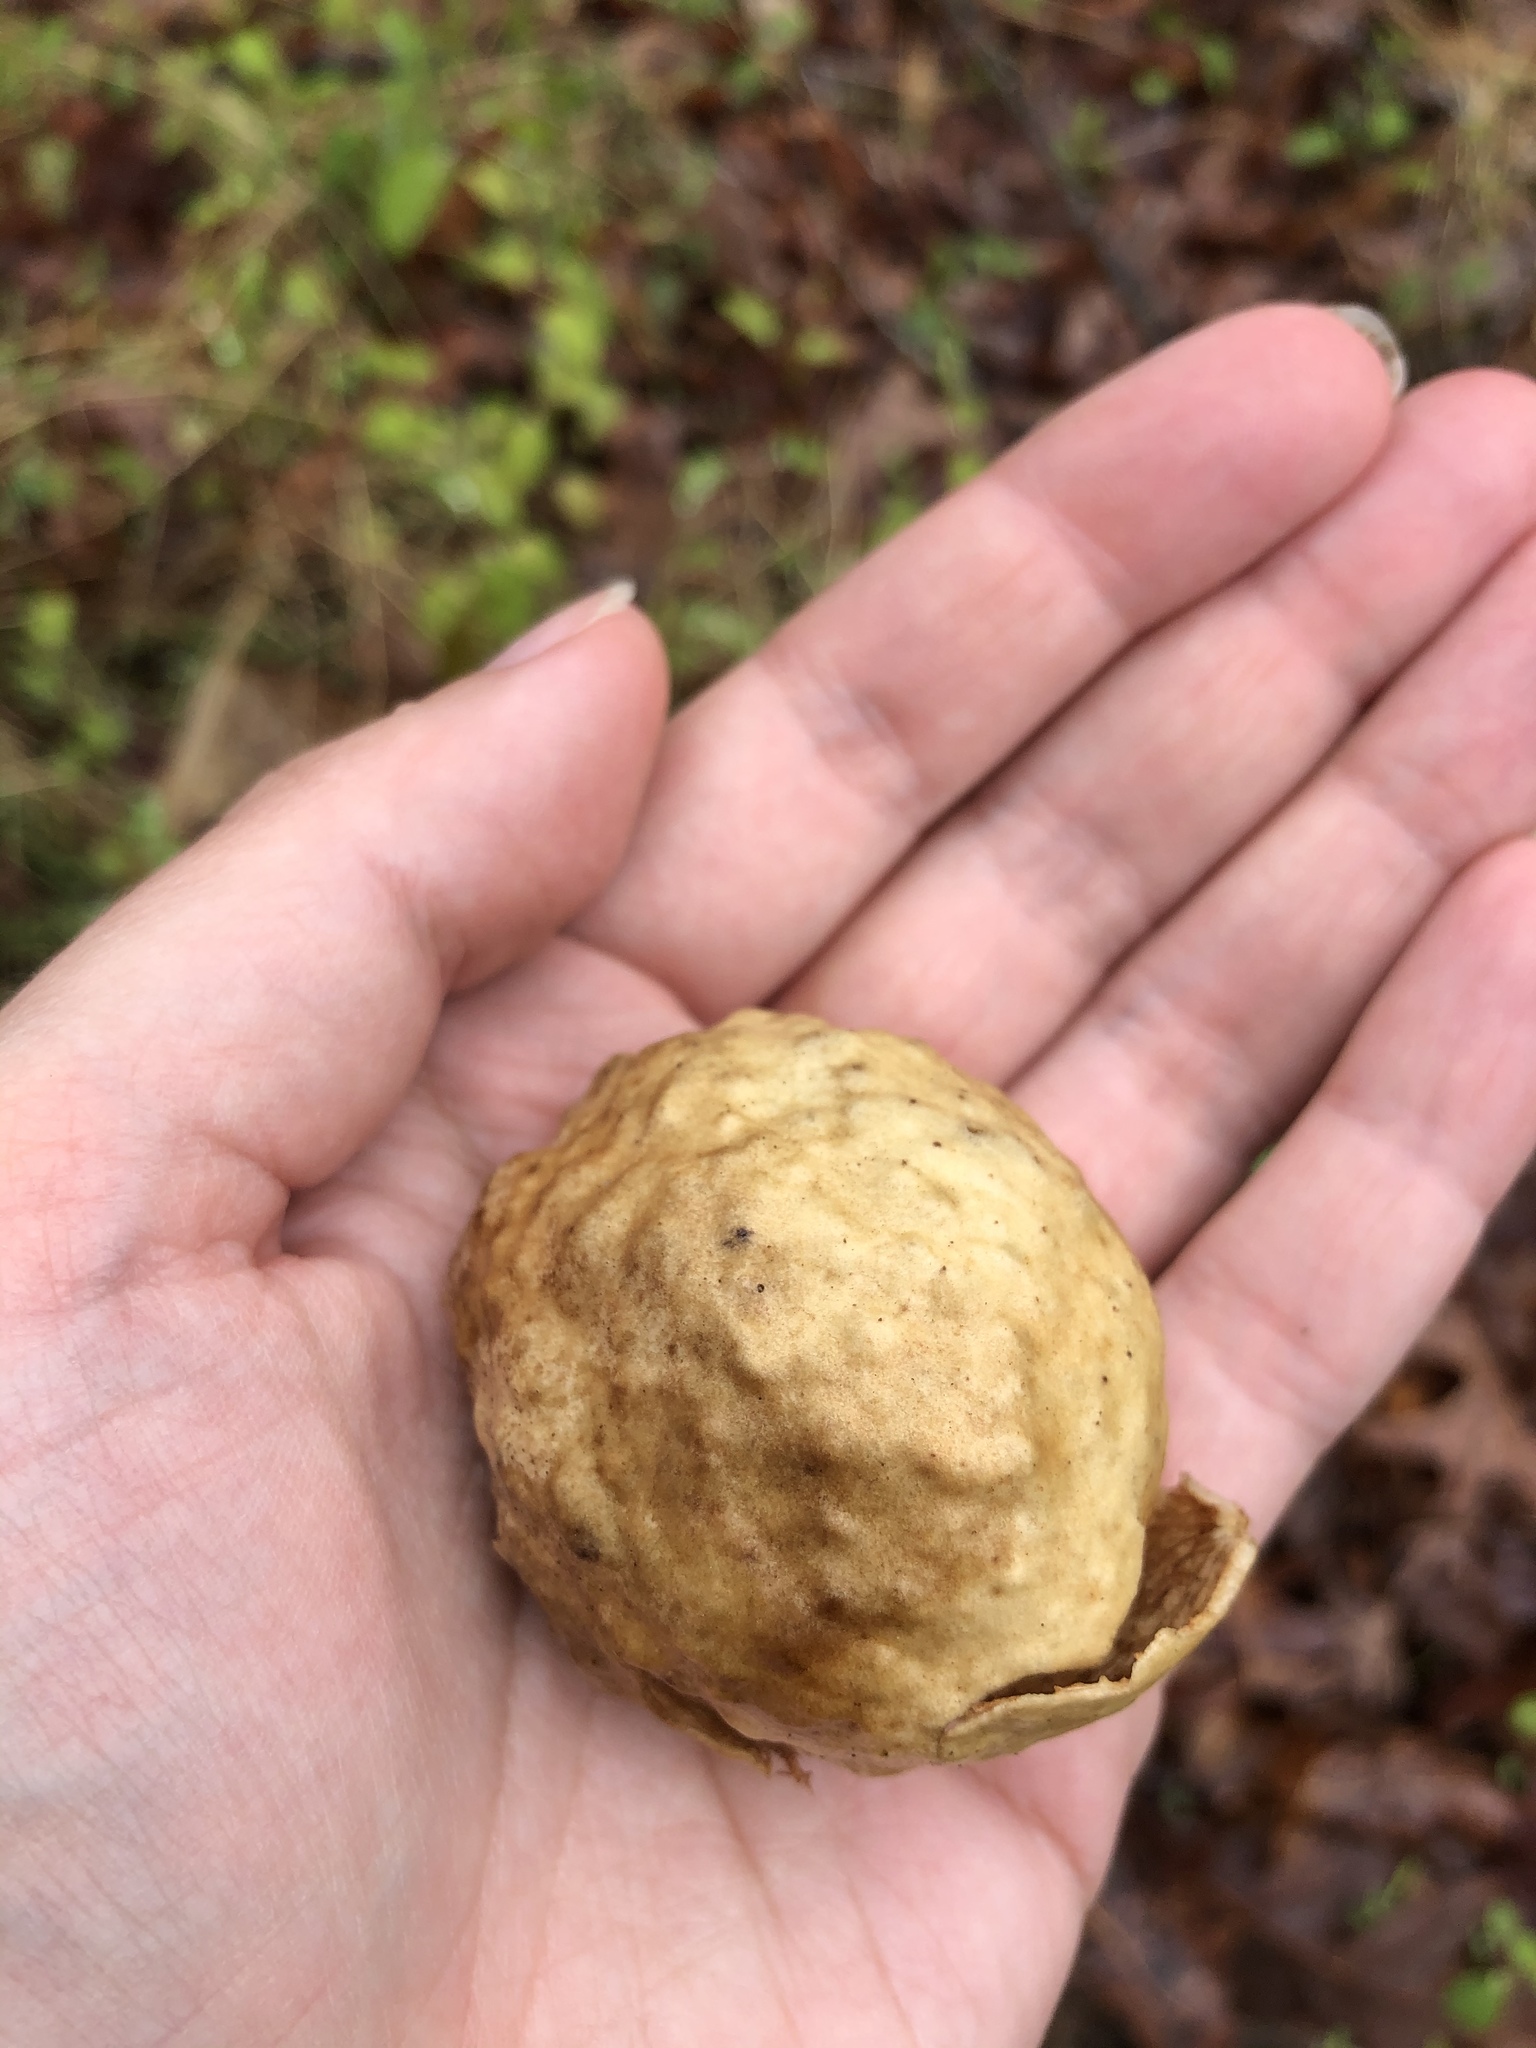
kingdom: Animalia
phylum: Arthropoda
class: Insecta
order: Hymenoptera
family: Cynipidae
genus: Amphibolips
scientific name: Amphibolips
